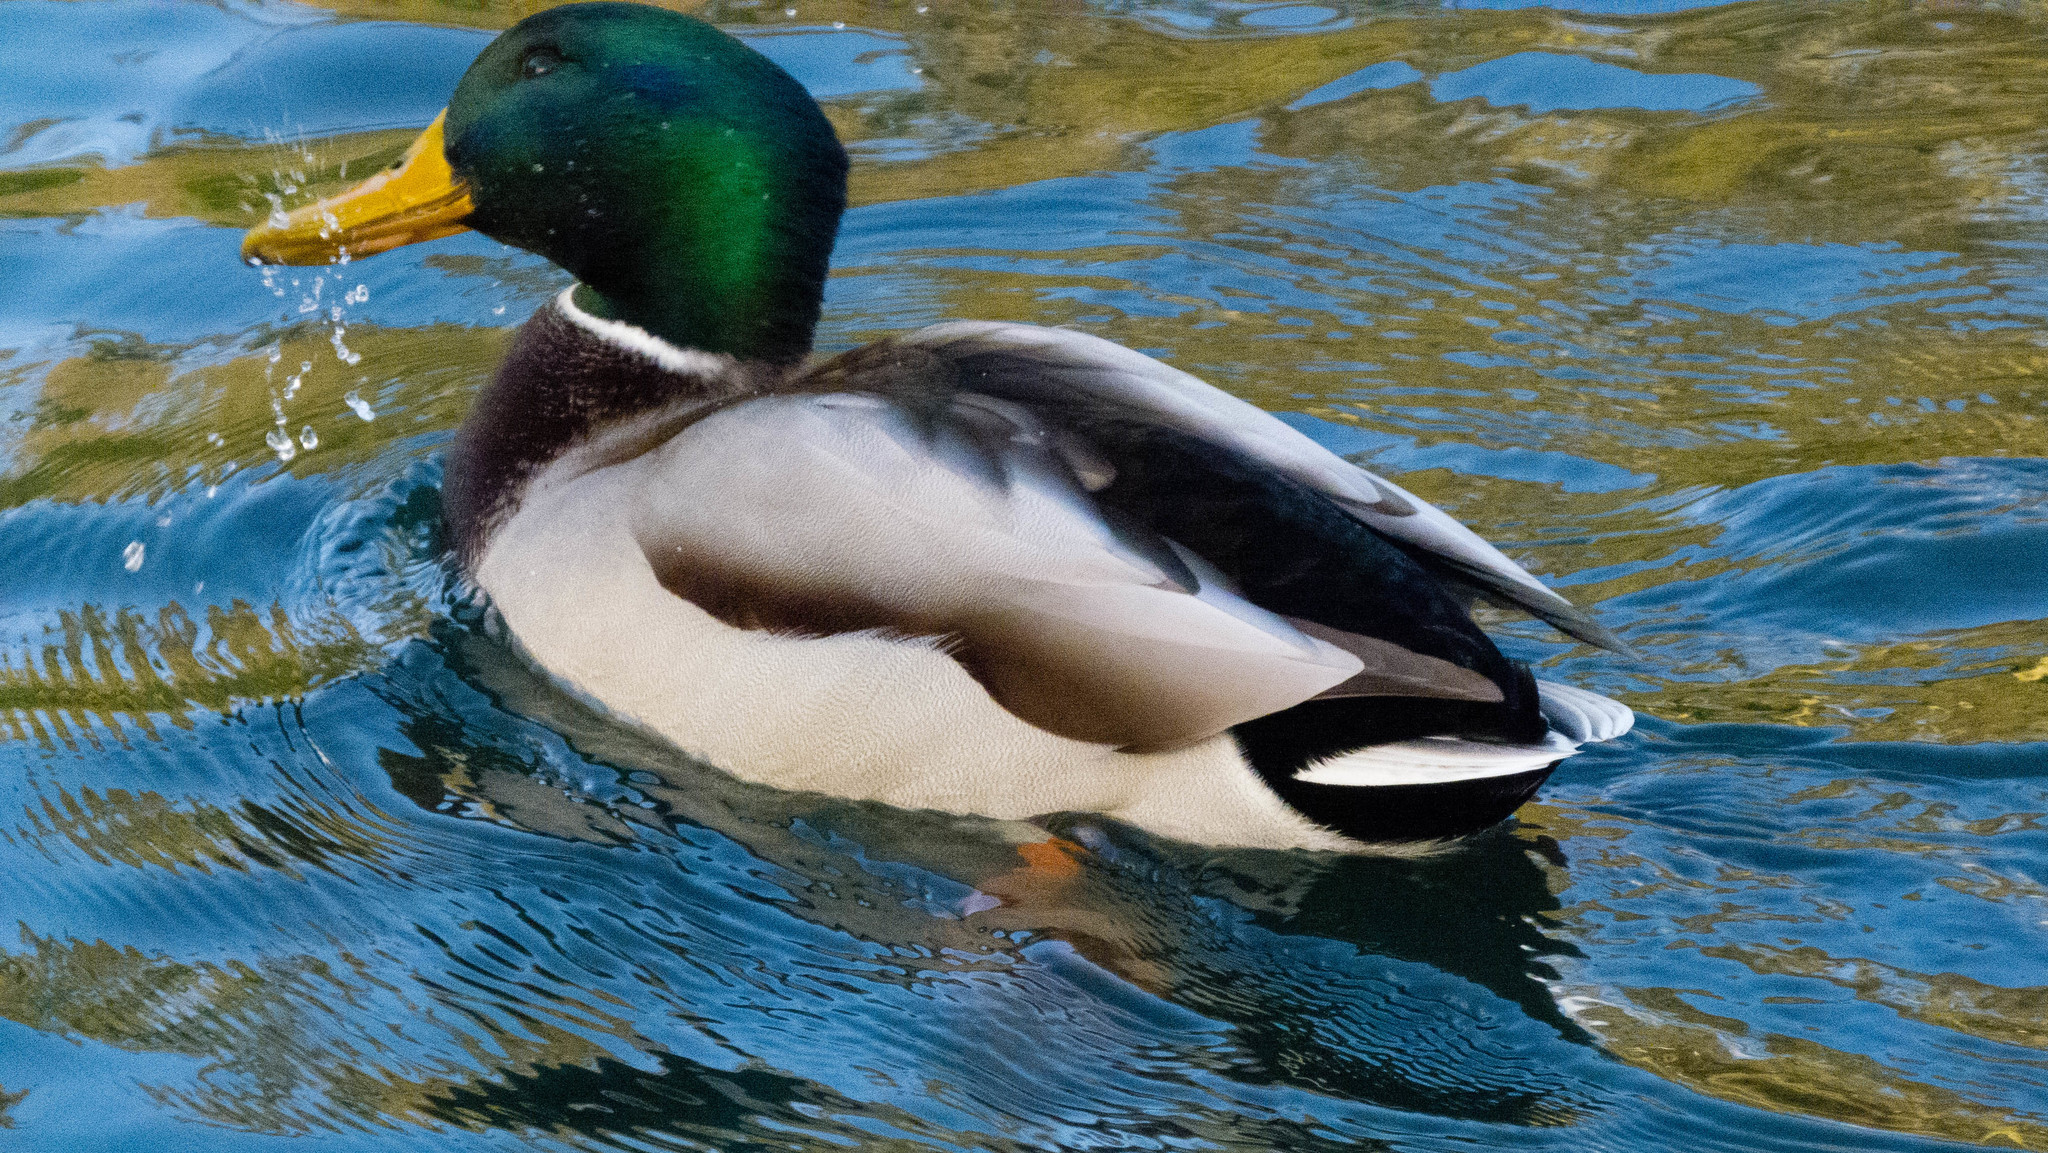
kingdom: Animalia
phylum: Chordata
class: Aves
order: Anseriformes
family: Anatidae
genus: Anas
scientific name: Anas platyrhynchos
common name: Mallard
